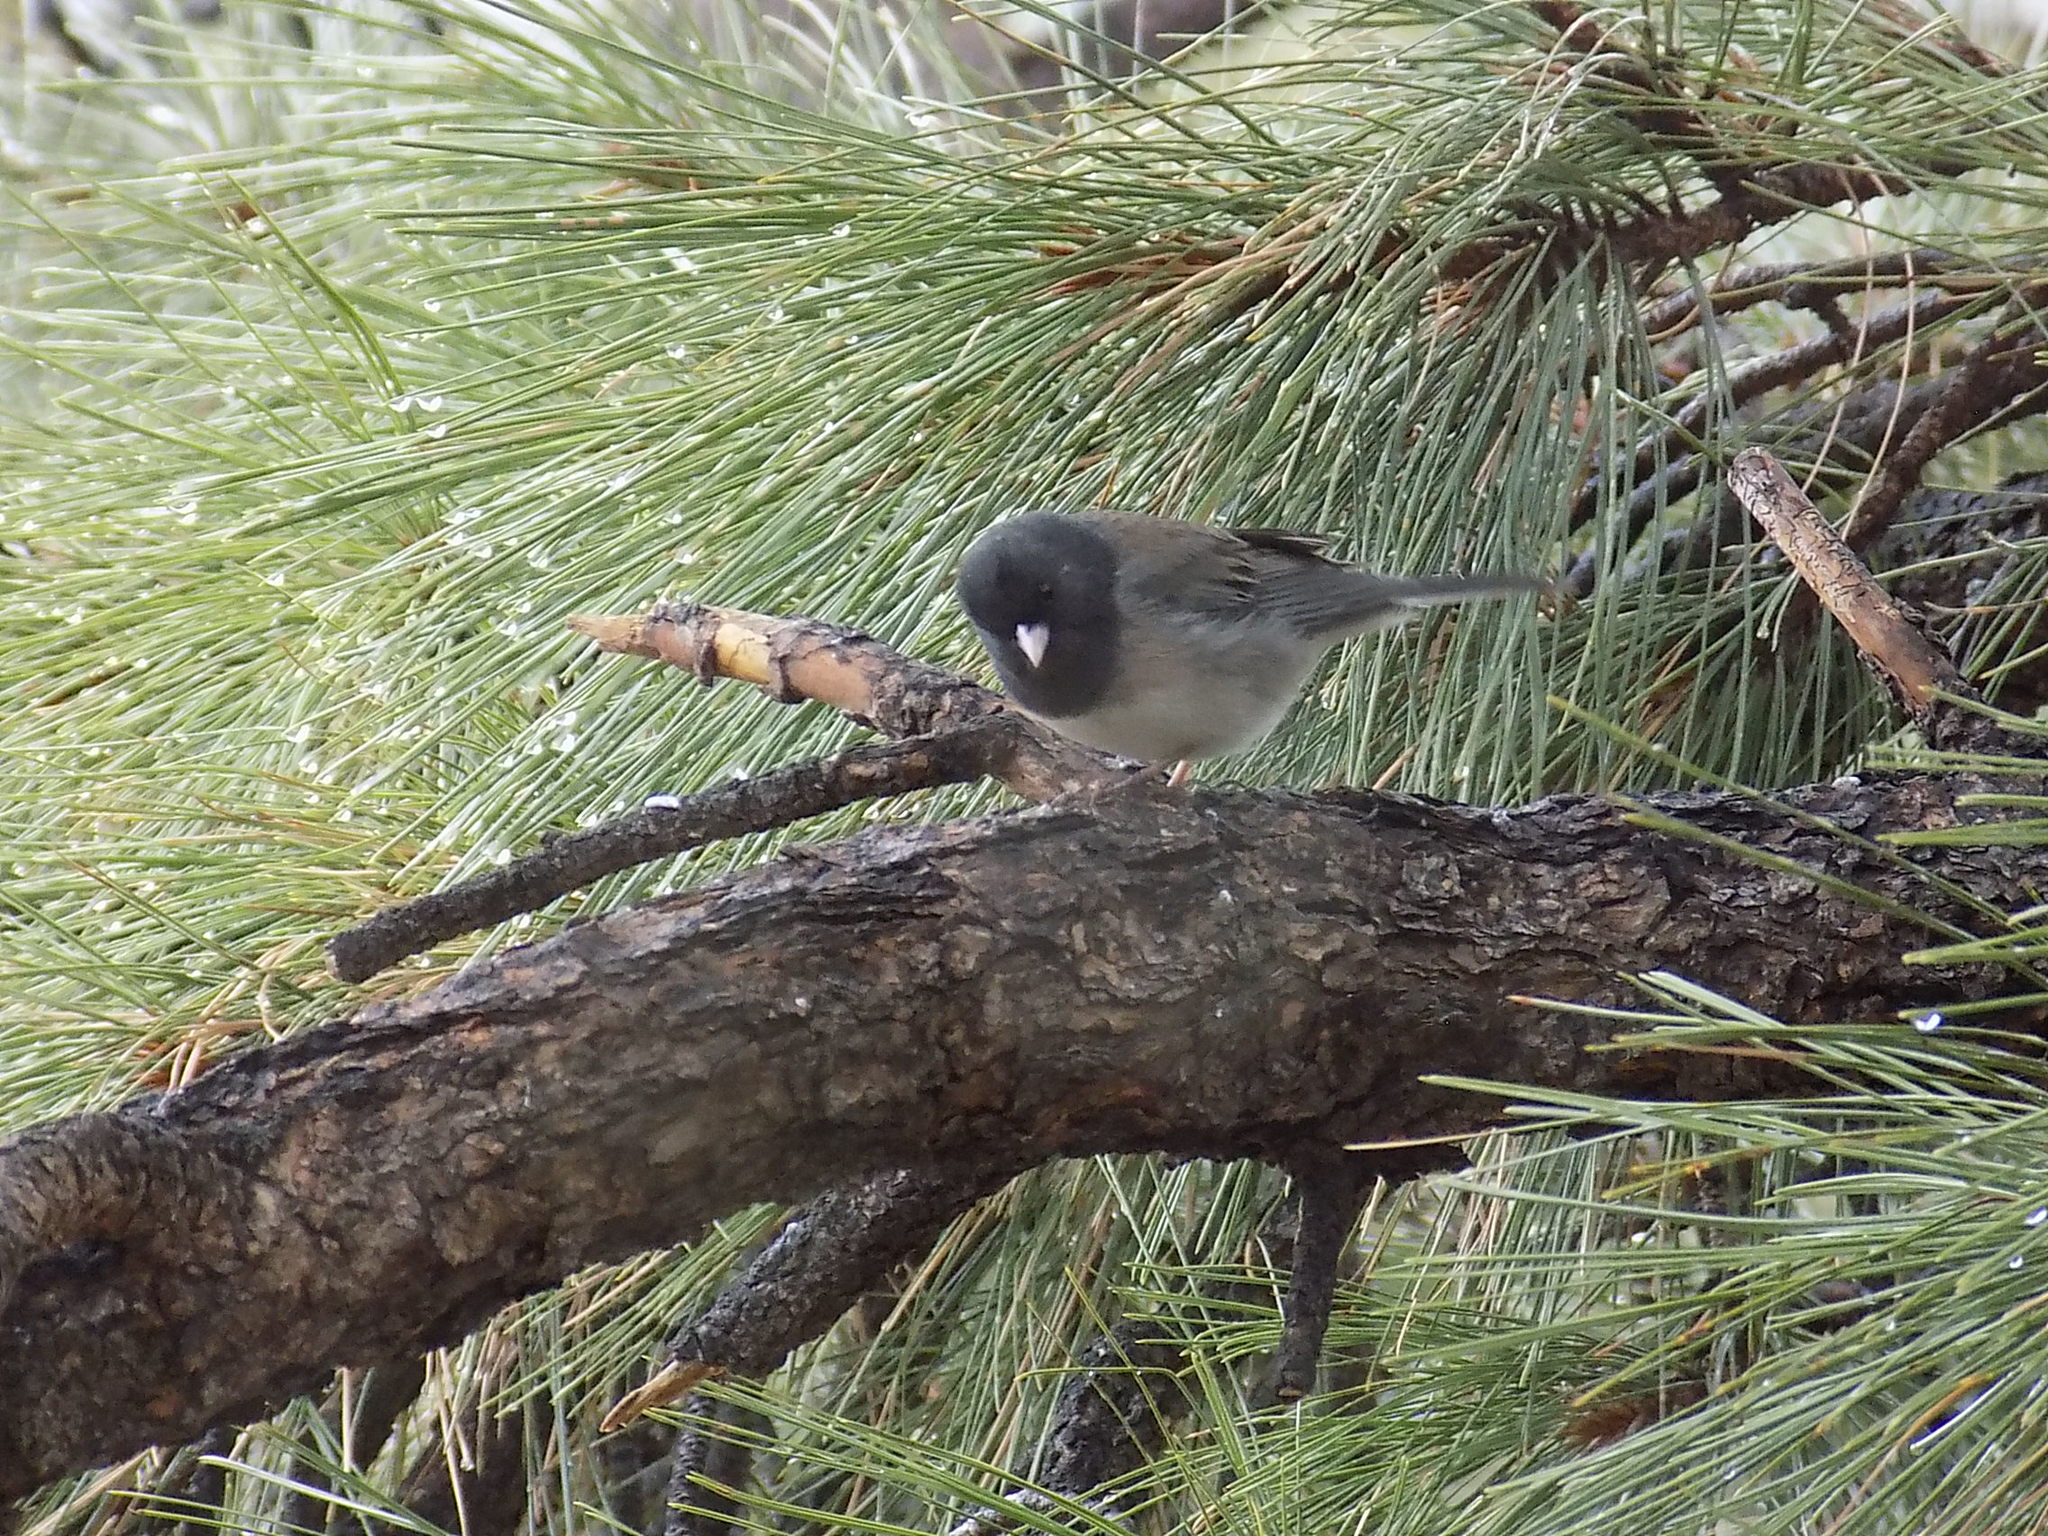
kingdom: Animalia
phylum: Chordata
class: Aves
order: Passeriformes
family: Passerellidae
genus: Junco
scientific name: Junco hyemalis
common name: Dark-eyed junco
